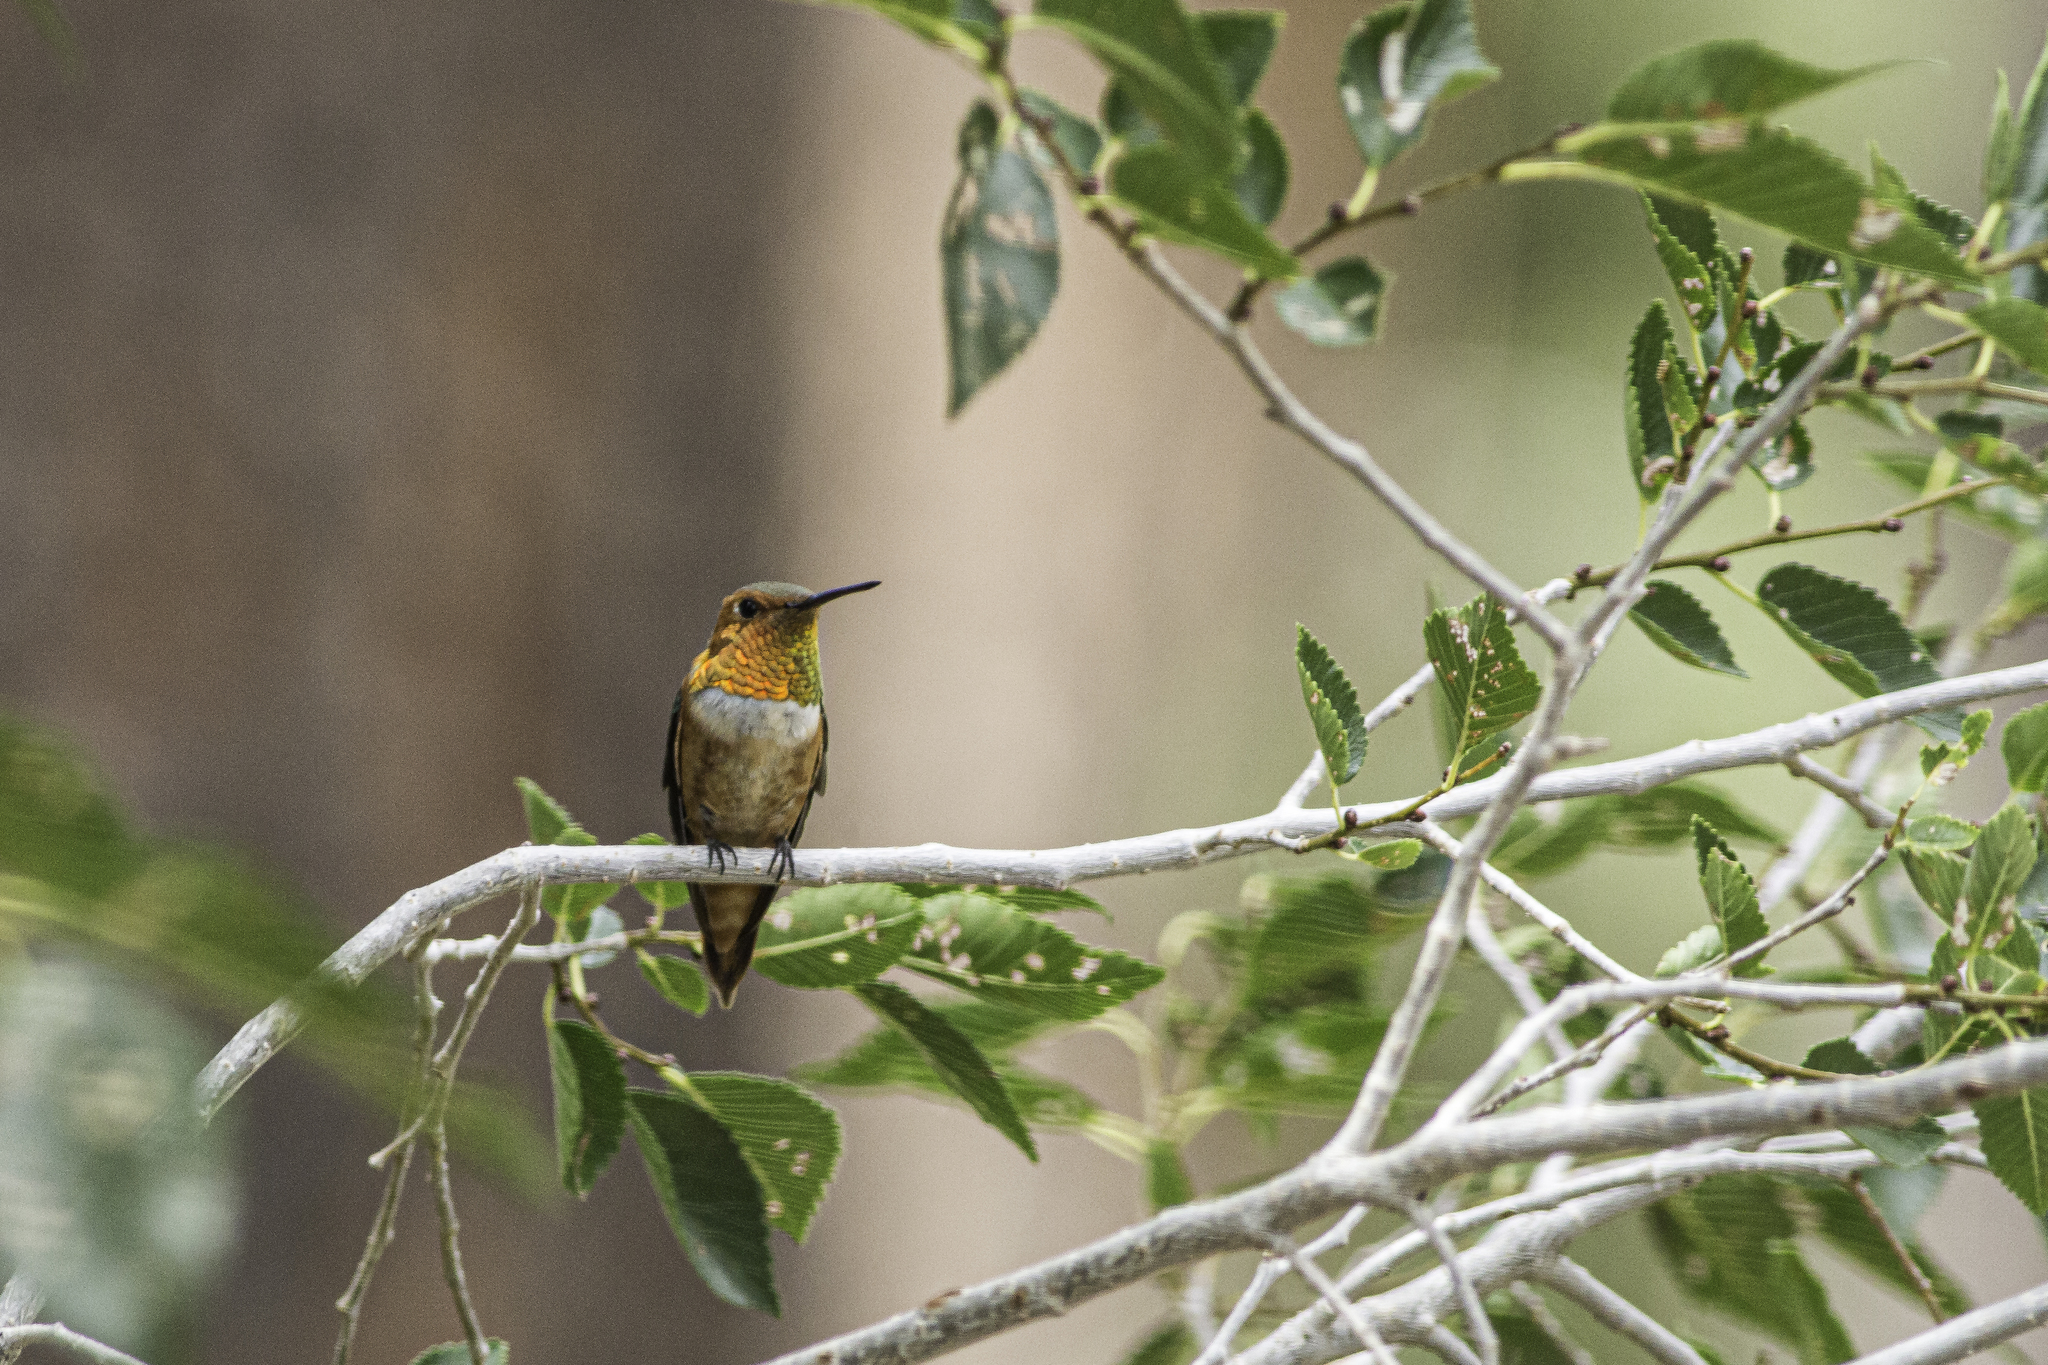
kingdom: Animalia
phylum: Chordata
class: Aves
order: Apodiformes
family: Trochilidae
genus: Selasphorus
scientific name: Selasphorus rufus
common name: Rufous hummingbird
